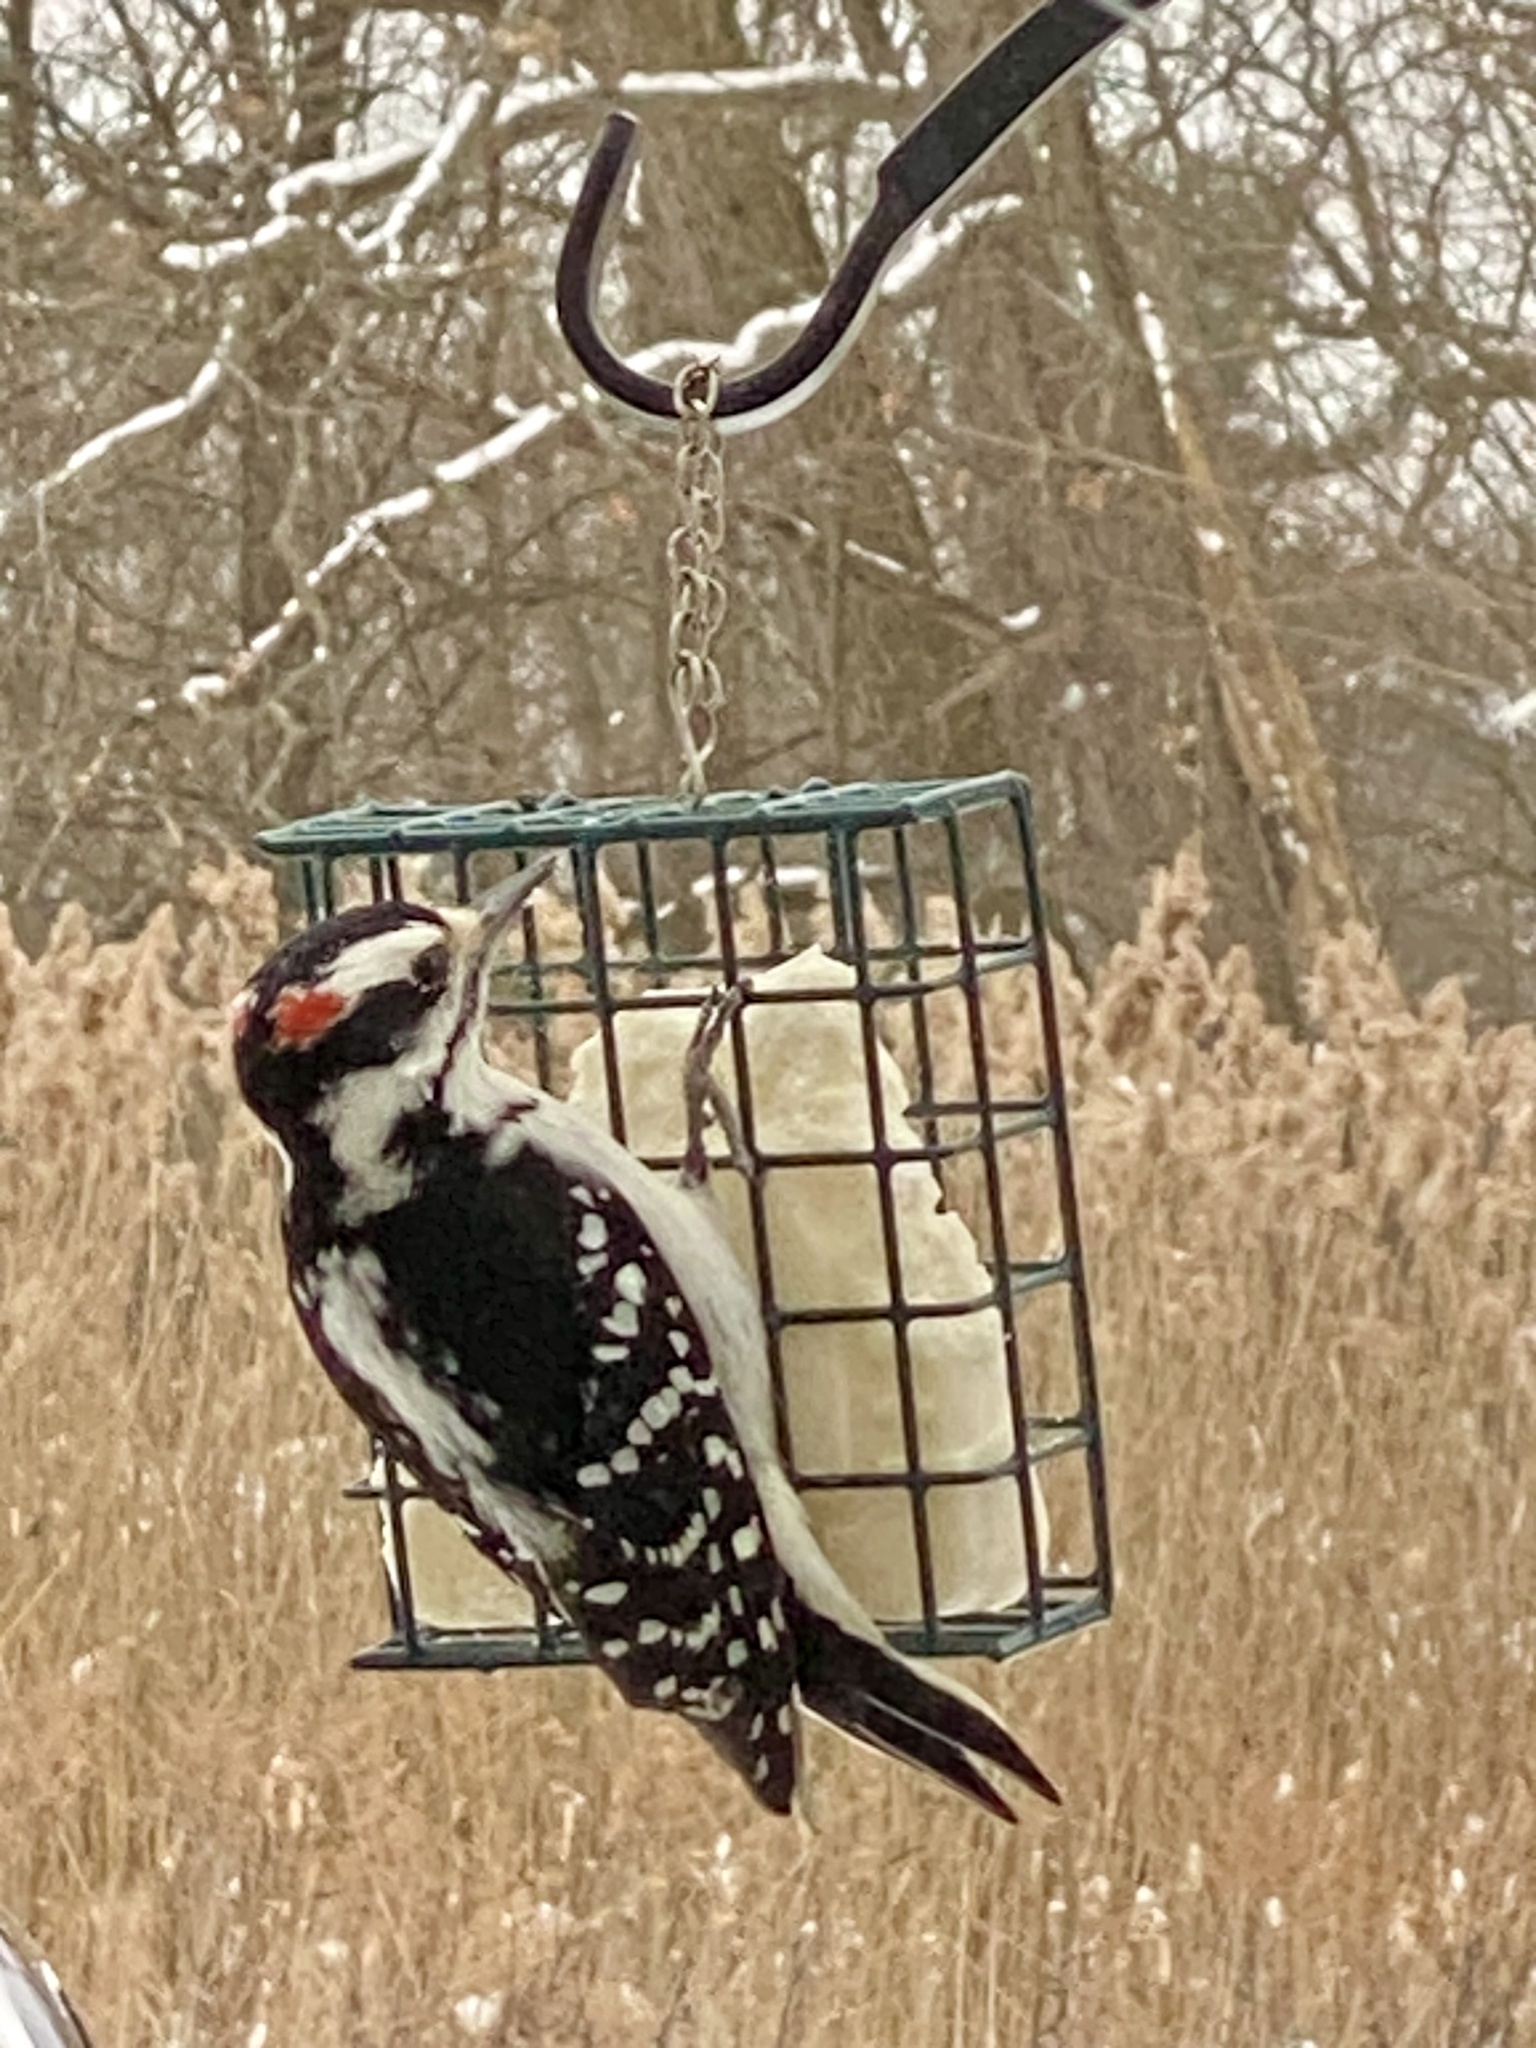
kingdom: Animalia
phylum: Chordata
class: Aves
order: Piciformes
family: Picidae
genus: Leuconotopicus
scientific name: Leuconotopicus villosus
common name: Hairy woodpecker
